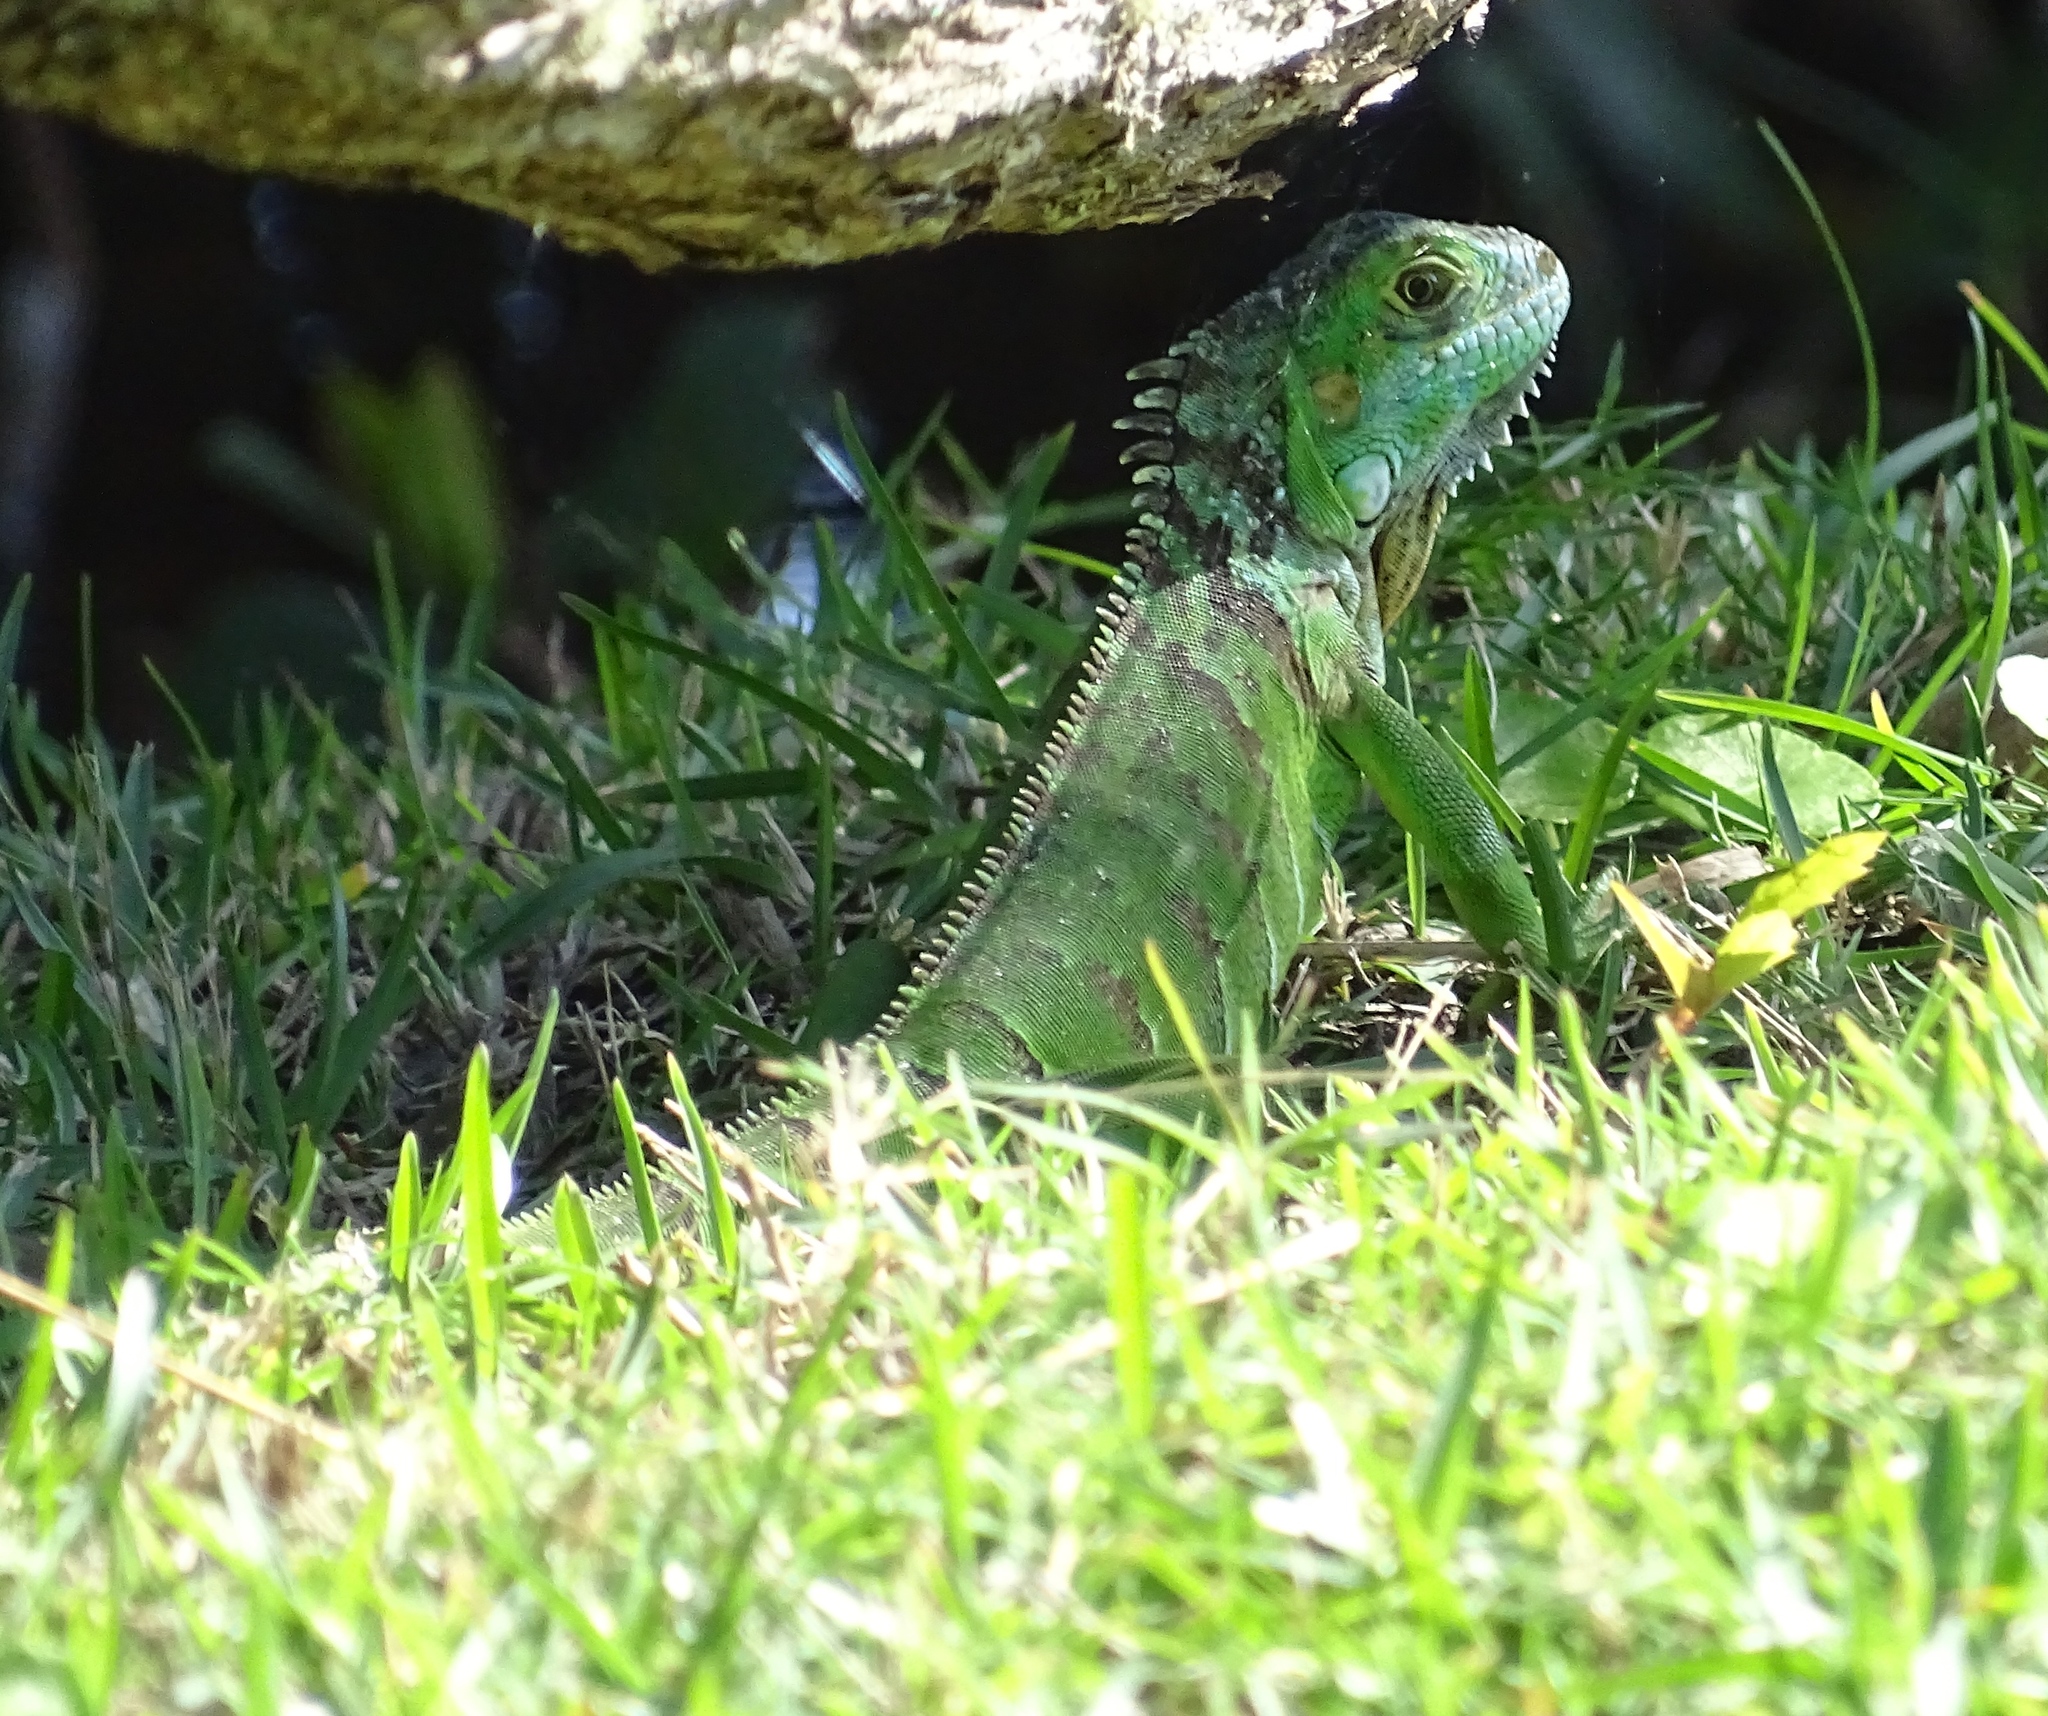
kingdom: Animalia
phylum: Chordata
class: Squamata
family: Iguanidae
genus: Iguana
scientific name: Iguana iguana
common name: Green iguana
